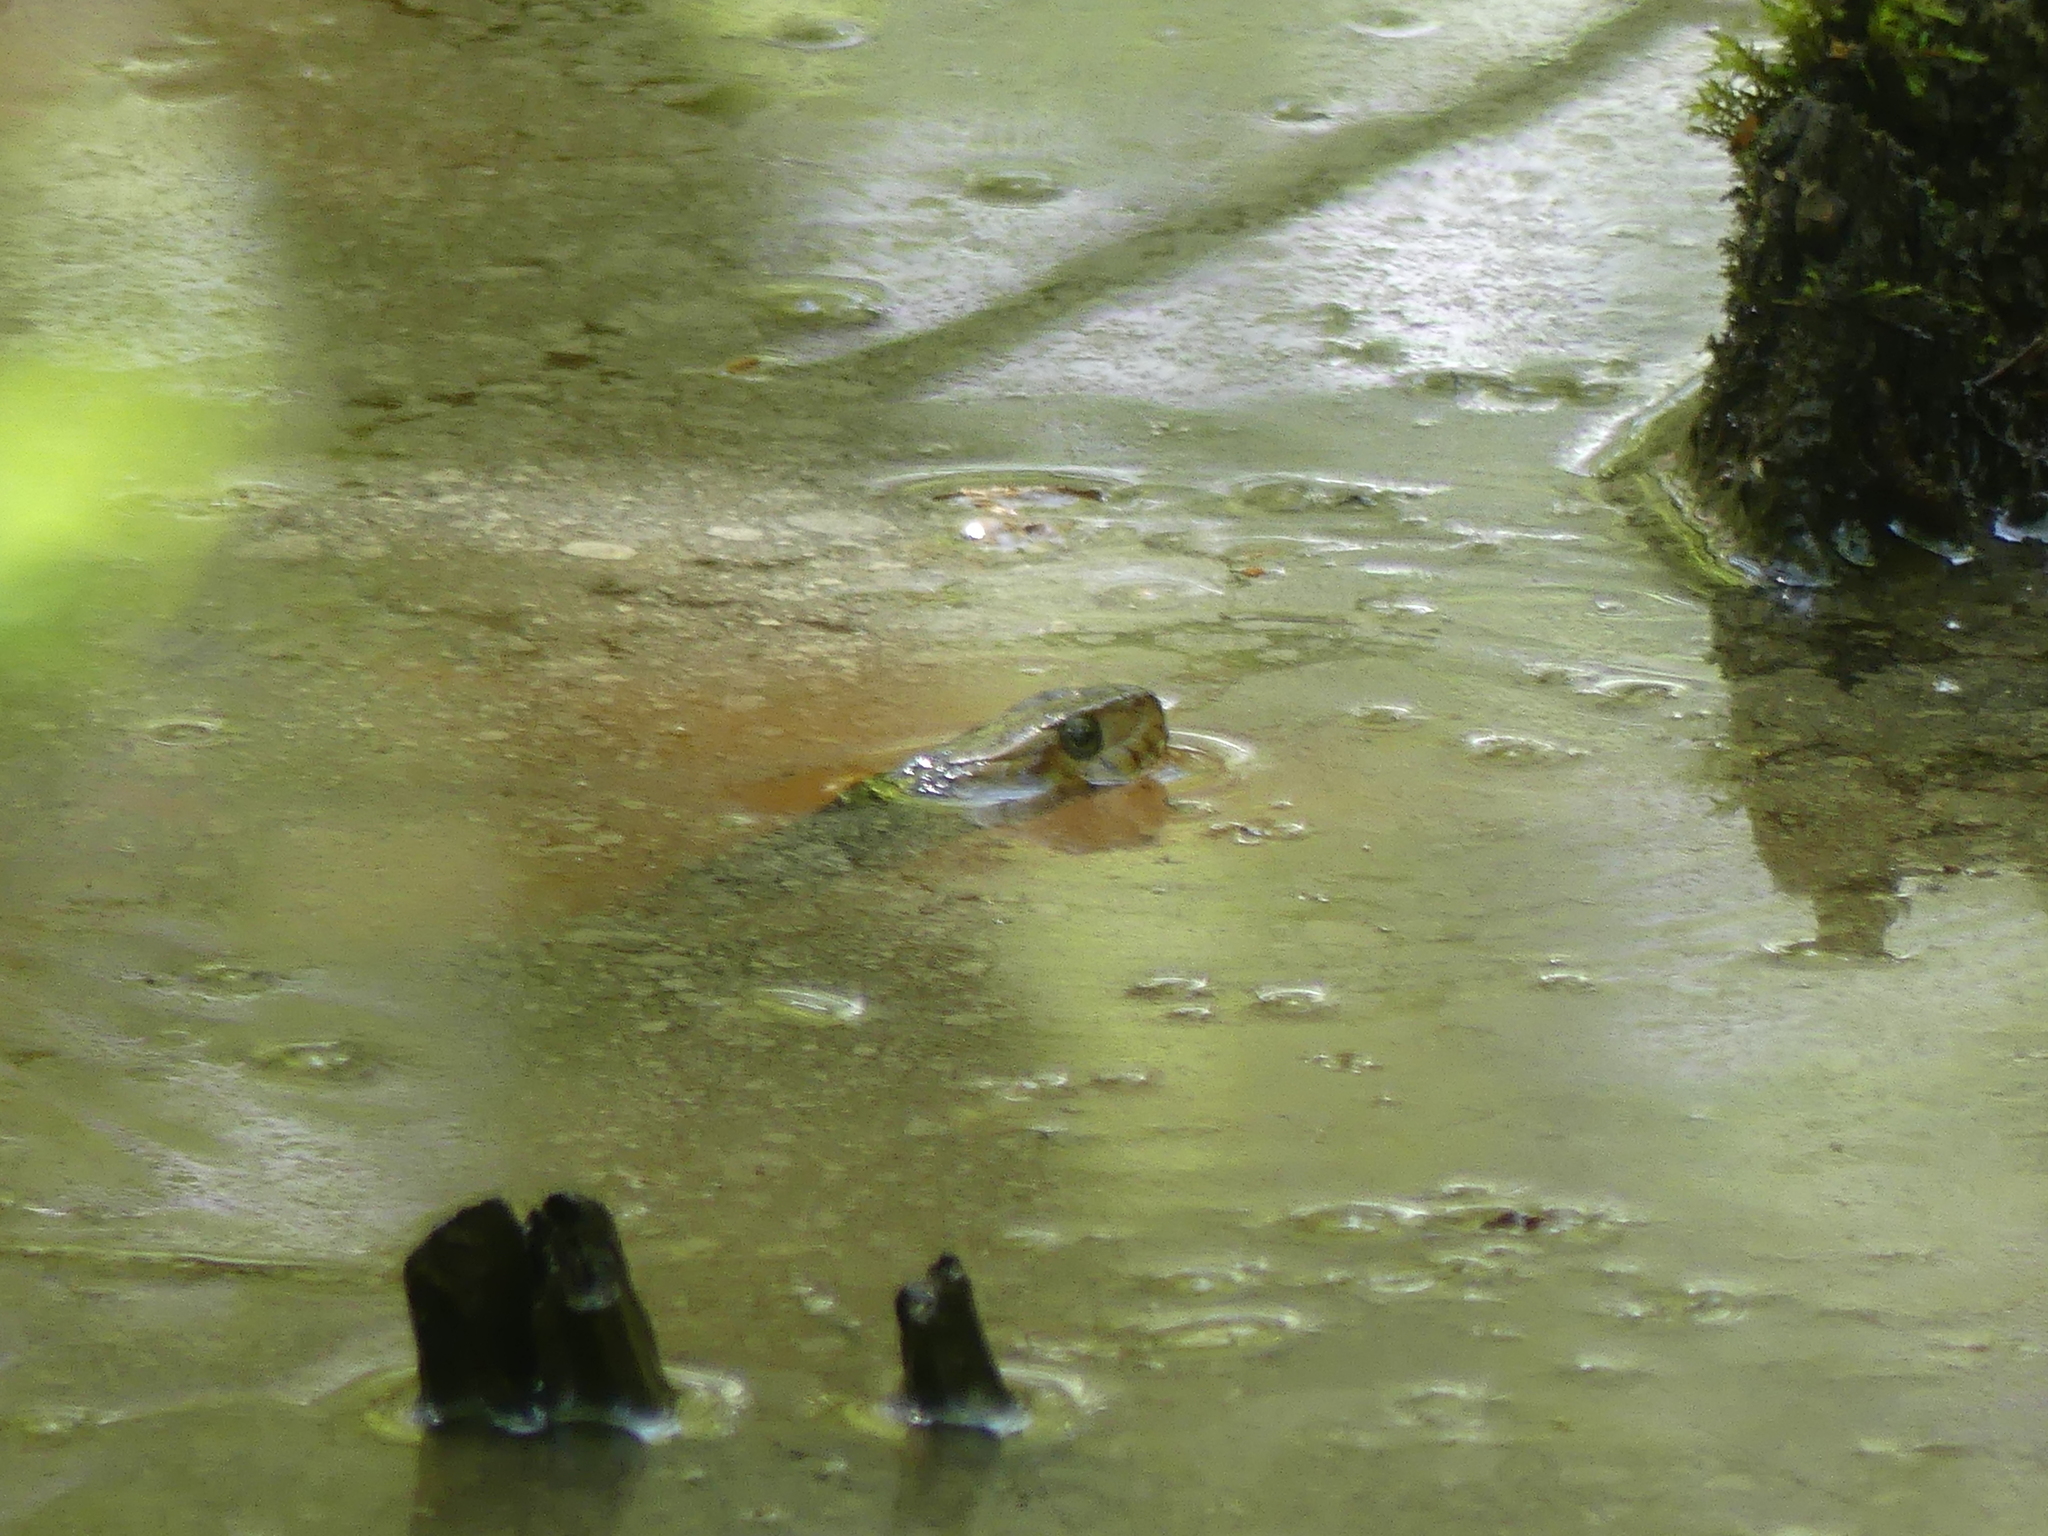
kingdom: Animalia
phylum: Chordata
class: Squamata
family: Colubridae
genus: Nerodia
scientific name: Nerodia fasciata
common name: Southern water snake
